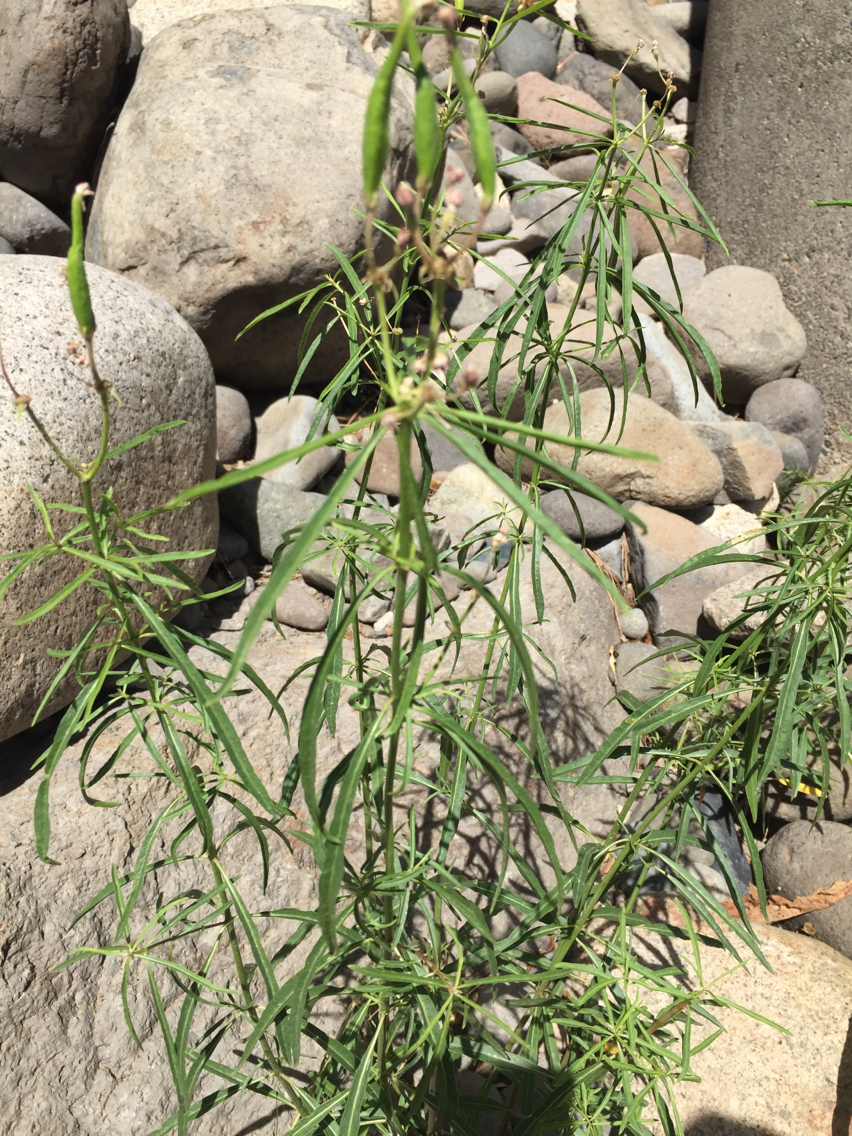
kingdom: Plantae
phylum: Tracheophyta
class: Magnoliopsida
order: Gentianales
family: Apocynaceae
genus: Asclepias
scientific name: Asclepias fascicularis
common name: Mexican milkweed
